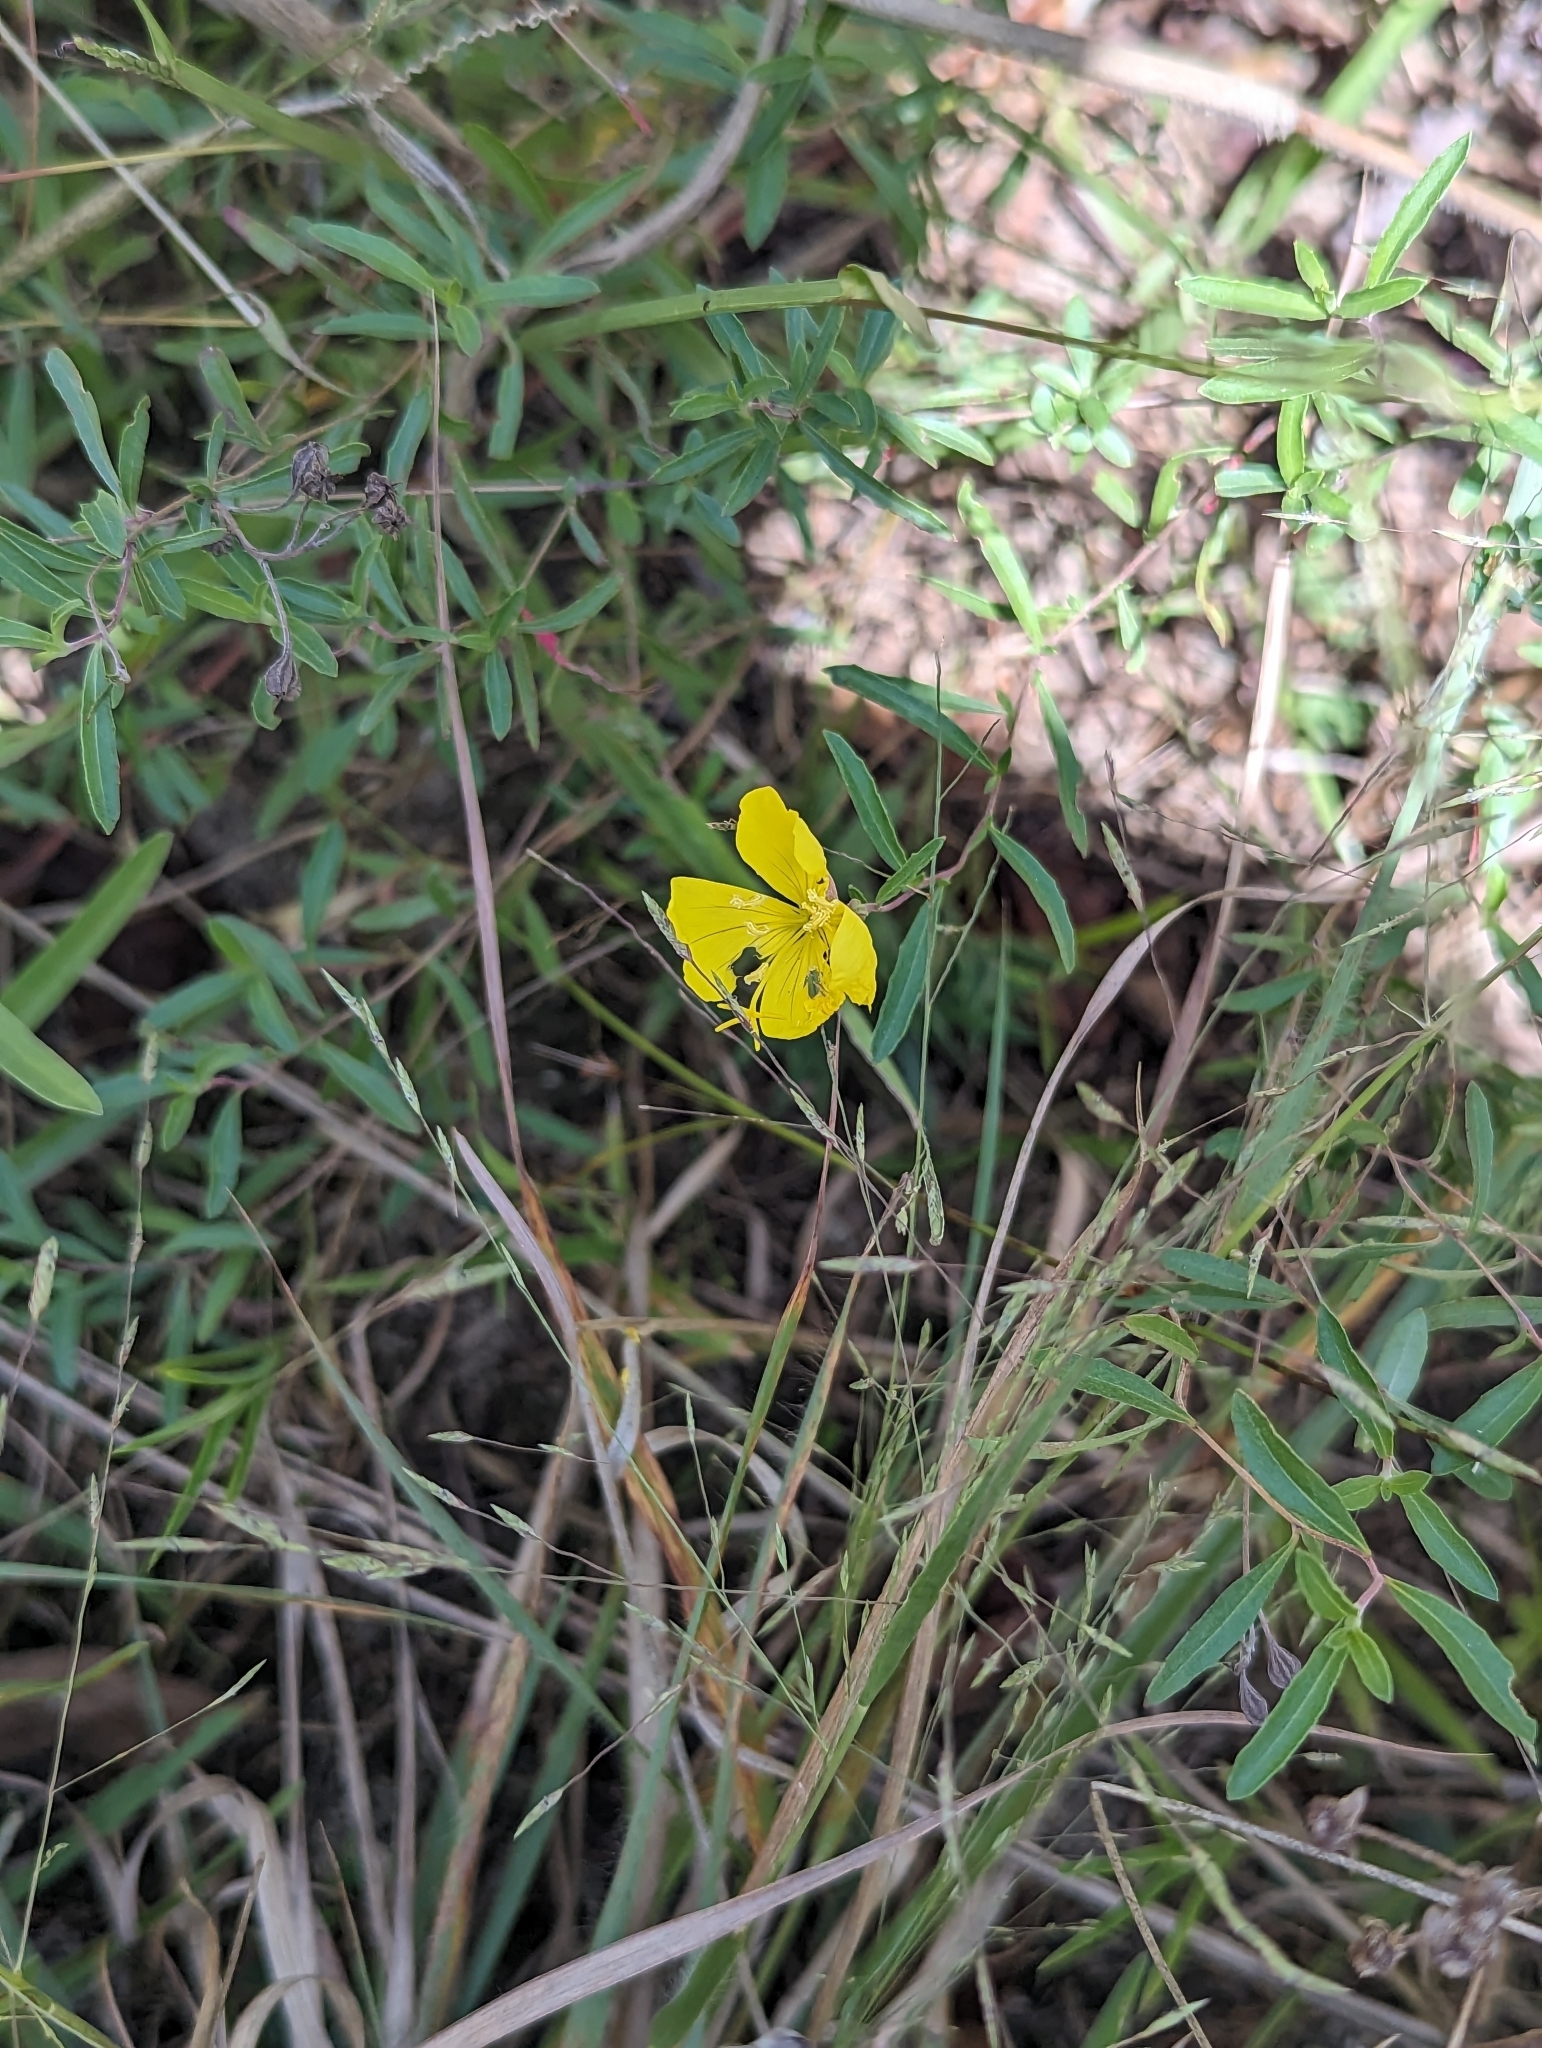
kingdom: Plantae
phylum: Tracheophyta
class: Magnoliopsida
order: Myrtales
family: Onagraceae
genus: Oenothera
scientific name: Oenothera fruticosa
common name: Southern sundrops
